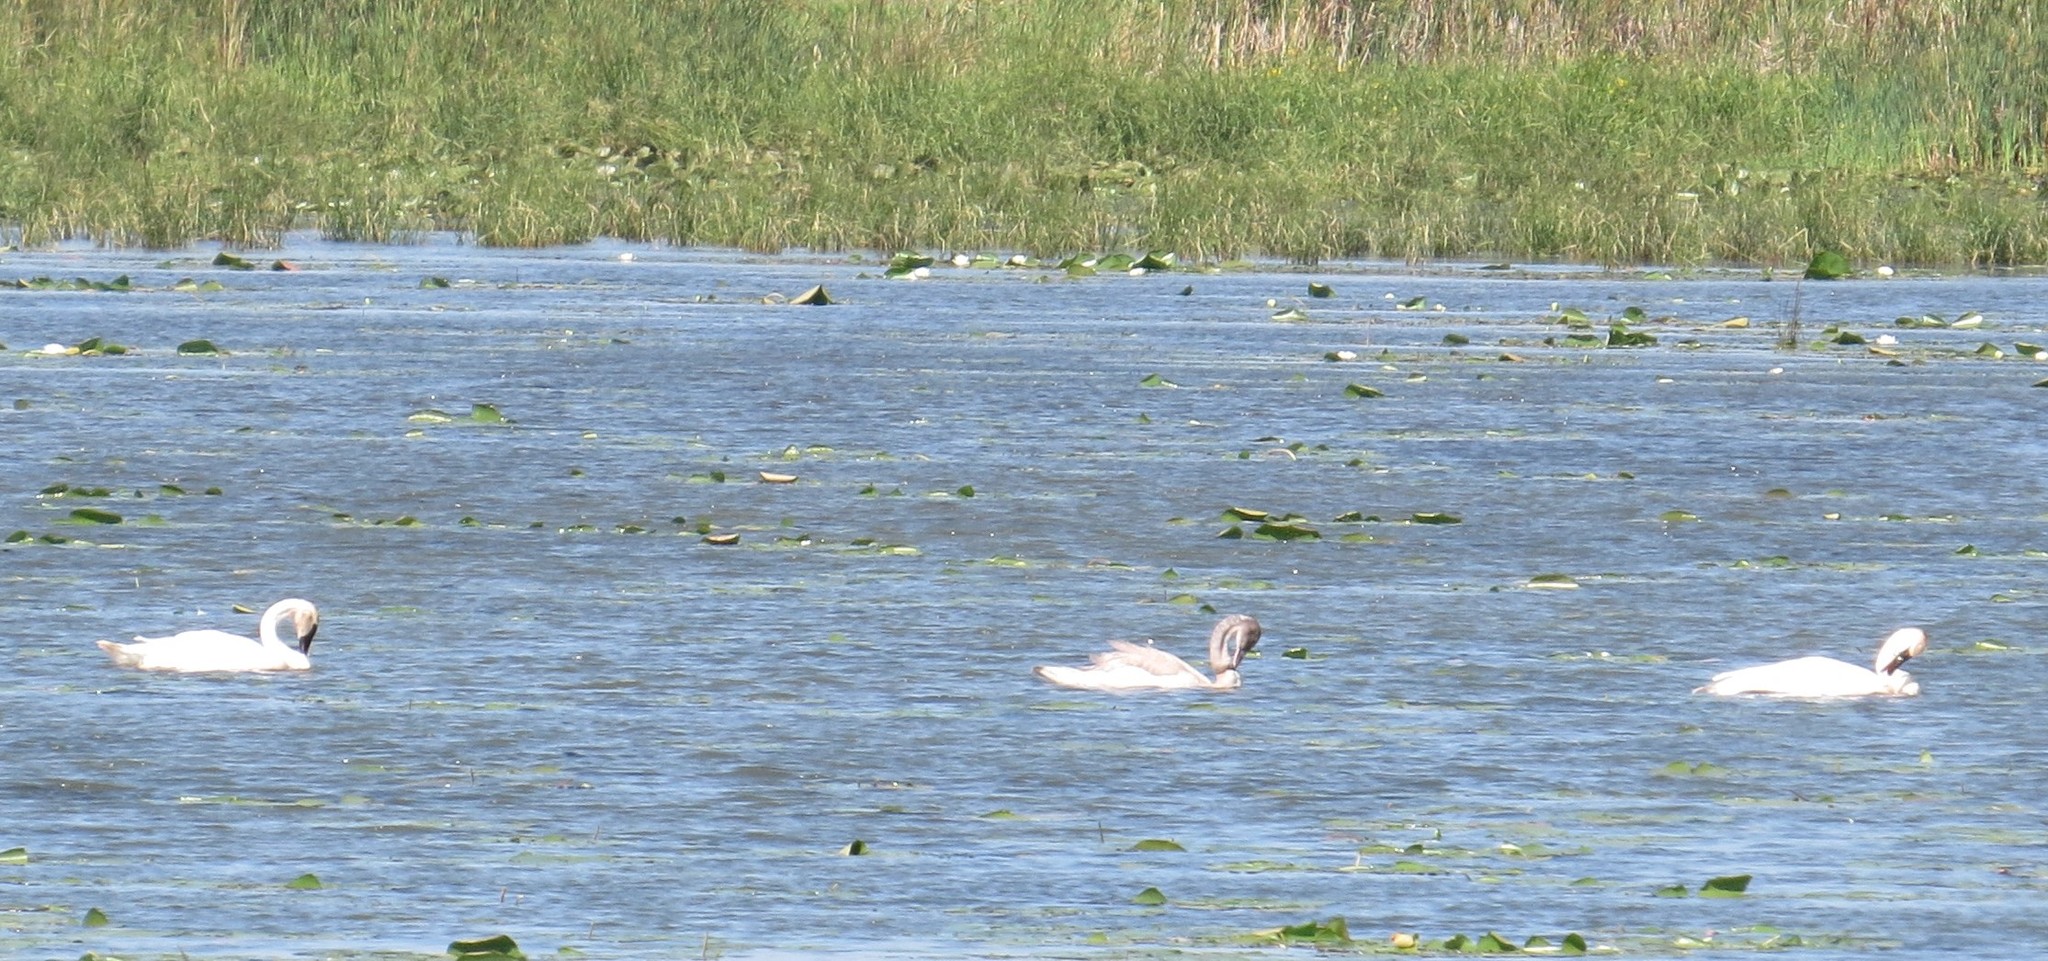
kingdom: Animalia
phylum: Chordata
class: Aves
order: Anseriformes
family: Anatidae
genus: Cygnus
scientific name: Cygnus buccinator
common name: Trumpeter swan
